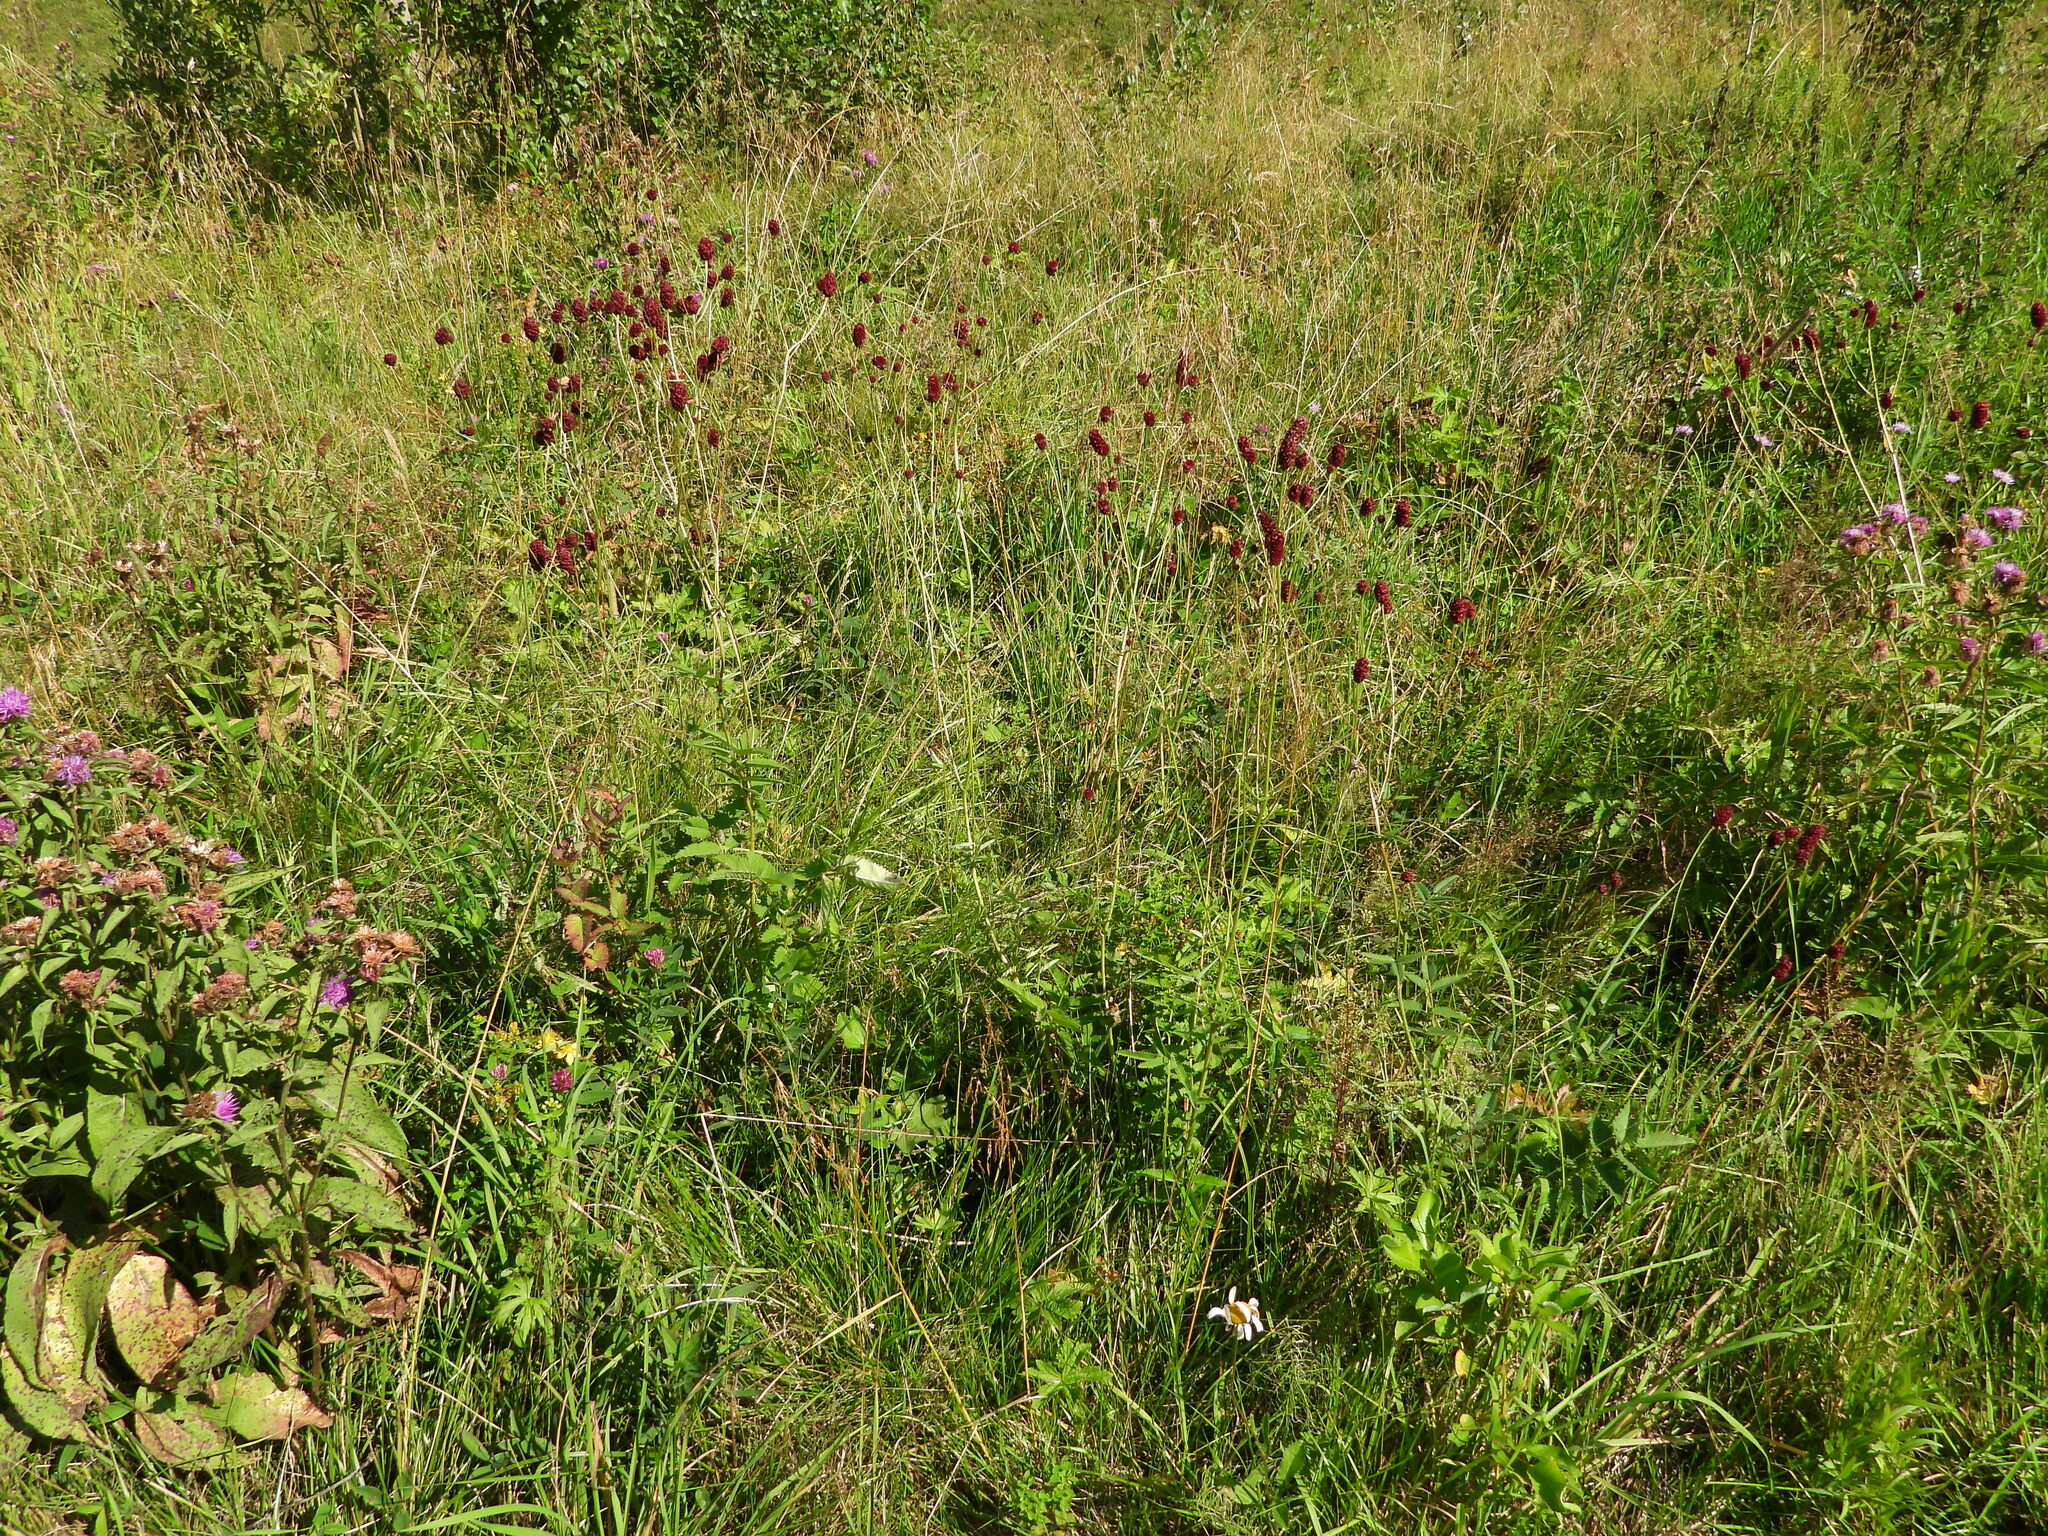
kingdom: Plantae
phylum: Tracheophyta
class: Magnoliopsida
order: Rosales
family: Rosaceae
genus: Sanguisorba
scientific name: Sanguisorba officinalis
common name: Great burnet
